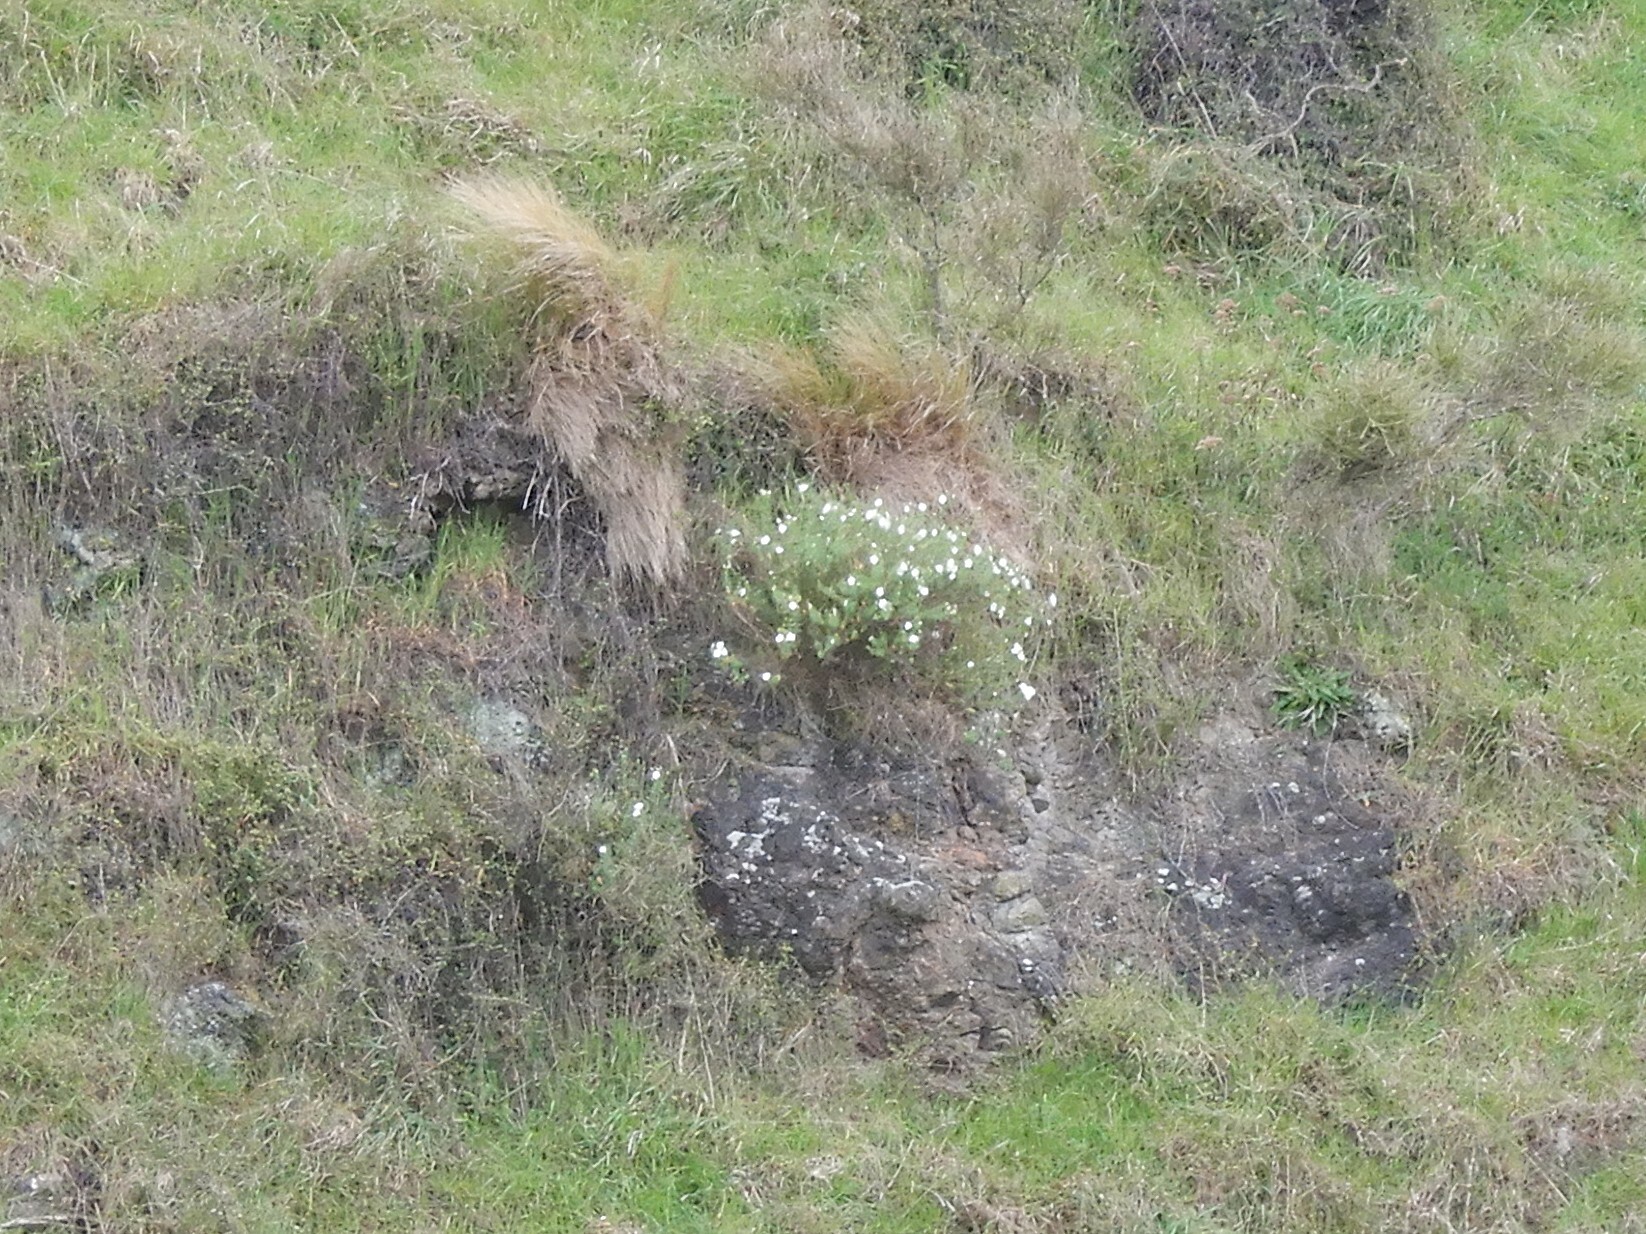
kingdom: Plantae
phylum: Tracheophyta
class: Magnoliopsida
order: Malpighiales
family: Linaceae
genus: Linum
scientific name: Linum monogynum
